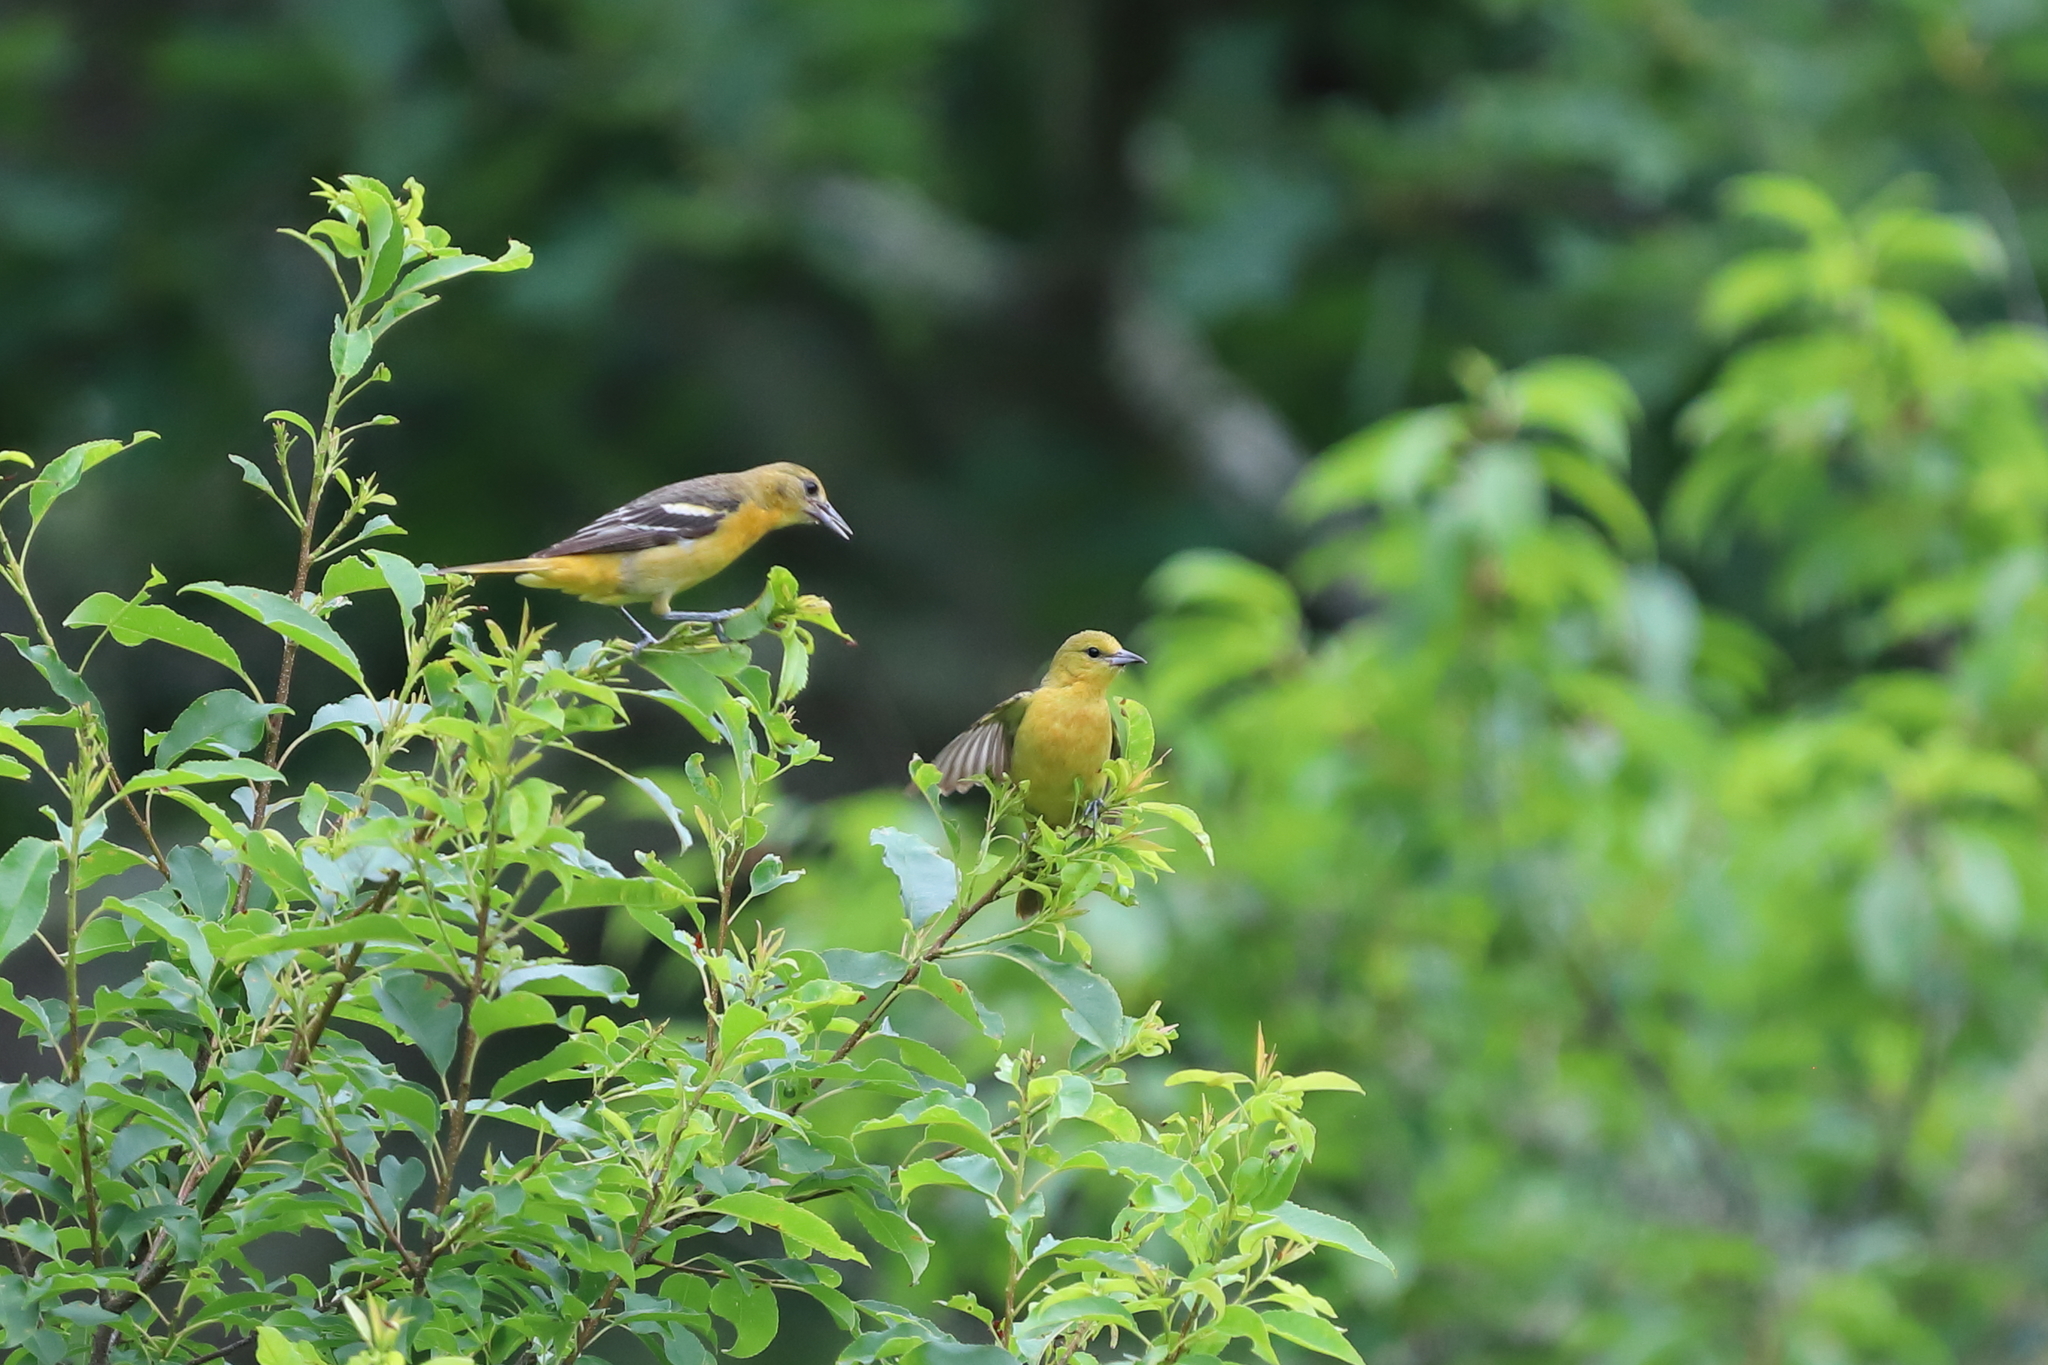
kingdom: Animalia
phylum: Chordata
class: Aves
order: Passeriformes
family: Icteridae
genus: Icterus
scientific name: Icterus galbula
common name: Baltimore oriole
